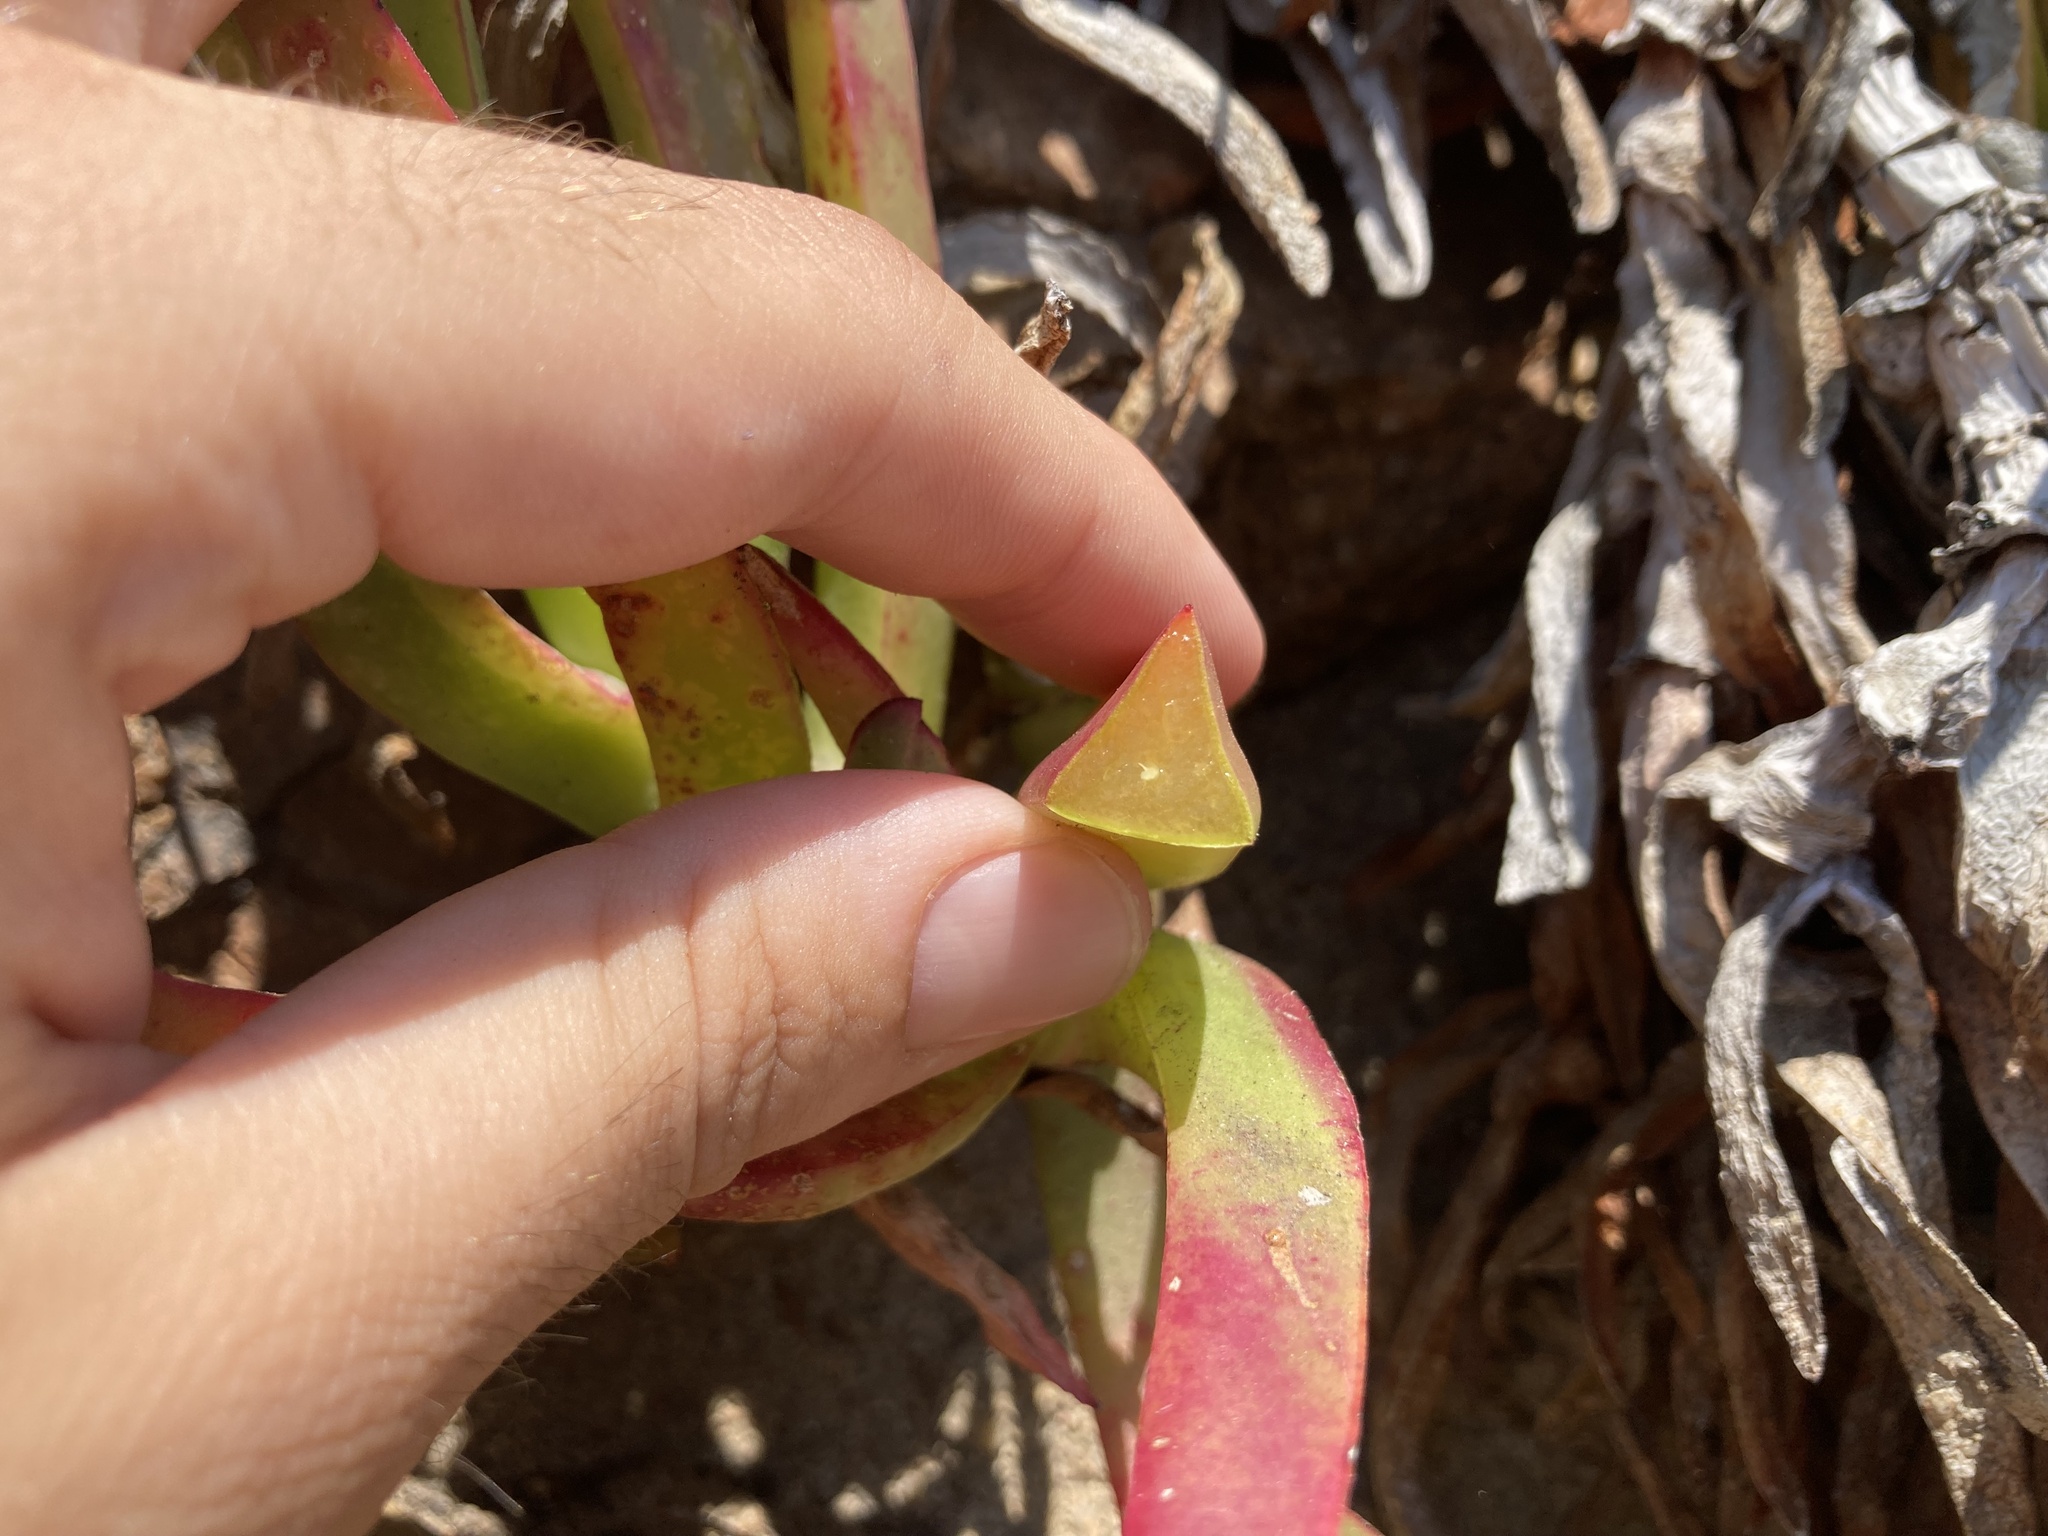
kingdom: Plantae
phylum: Tracheophyta
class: Magnoliopsida
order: Caryophyllales
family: Aizoaceae
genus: Carpobrotus
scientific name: Carpobrotus edulis
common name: Hottentot-fig
